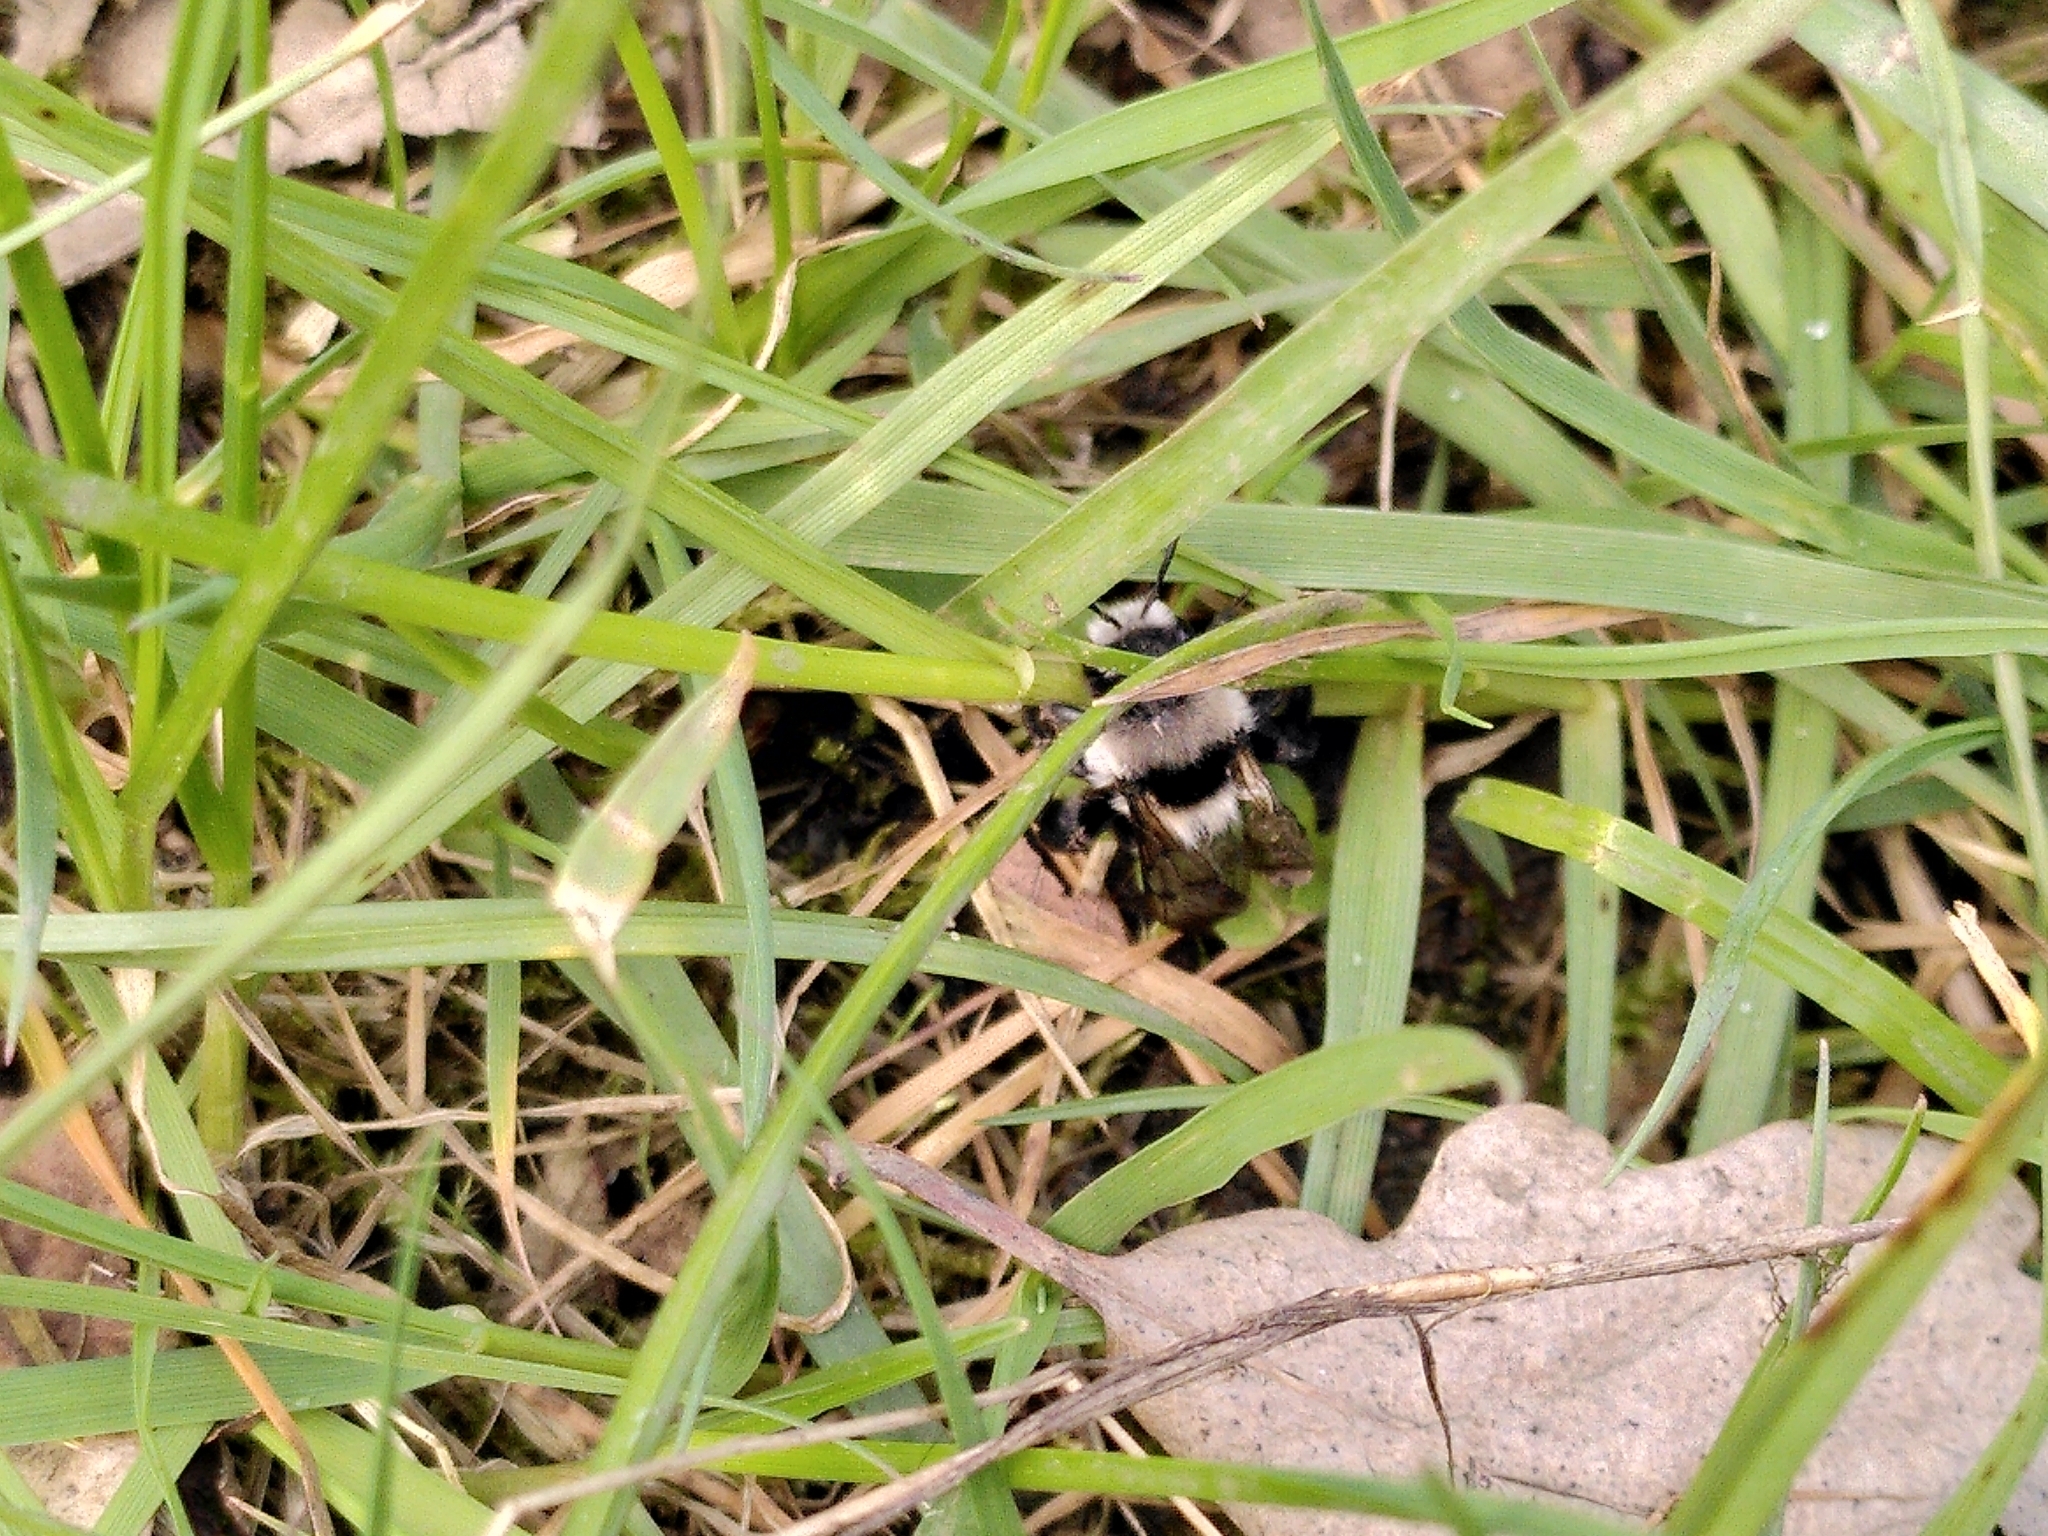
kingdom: Animalia
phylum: Arthropoda
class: Insecta
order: Hymenoptera
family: Andrenidae
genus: Andrena
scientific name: Andrena cineraria
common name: Ashy mining bee
